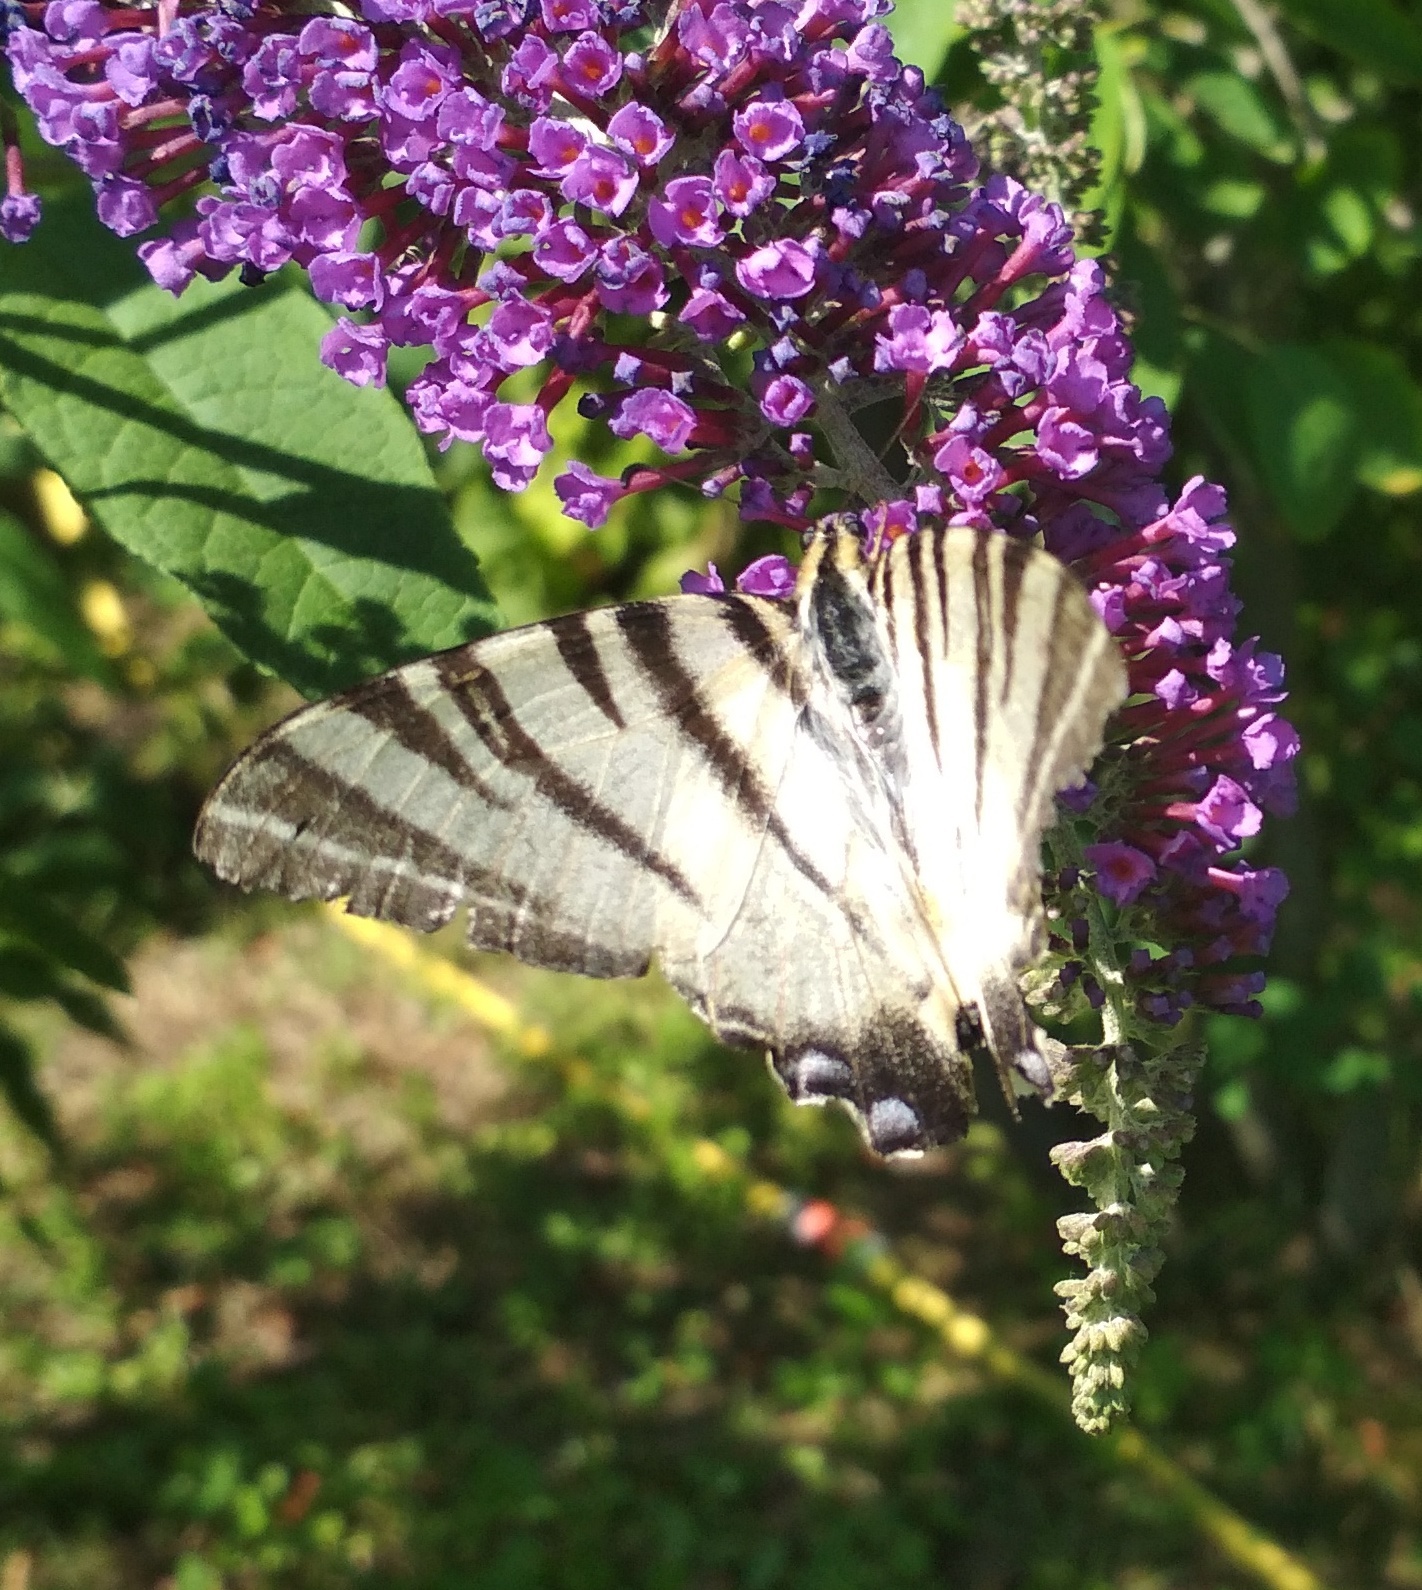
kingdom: Animalia
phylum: Arthropoda
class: Insecta
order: Lepidoptera
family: Papilionidae
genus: Iphiclides
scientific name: Iphiclides podalirius
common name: Scarce swallowtail
